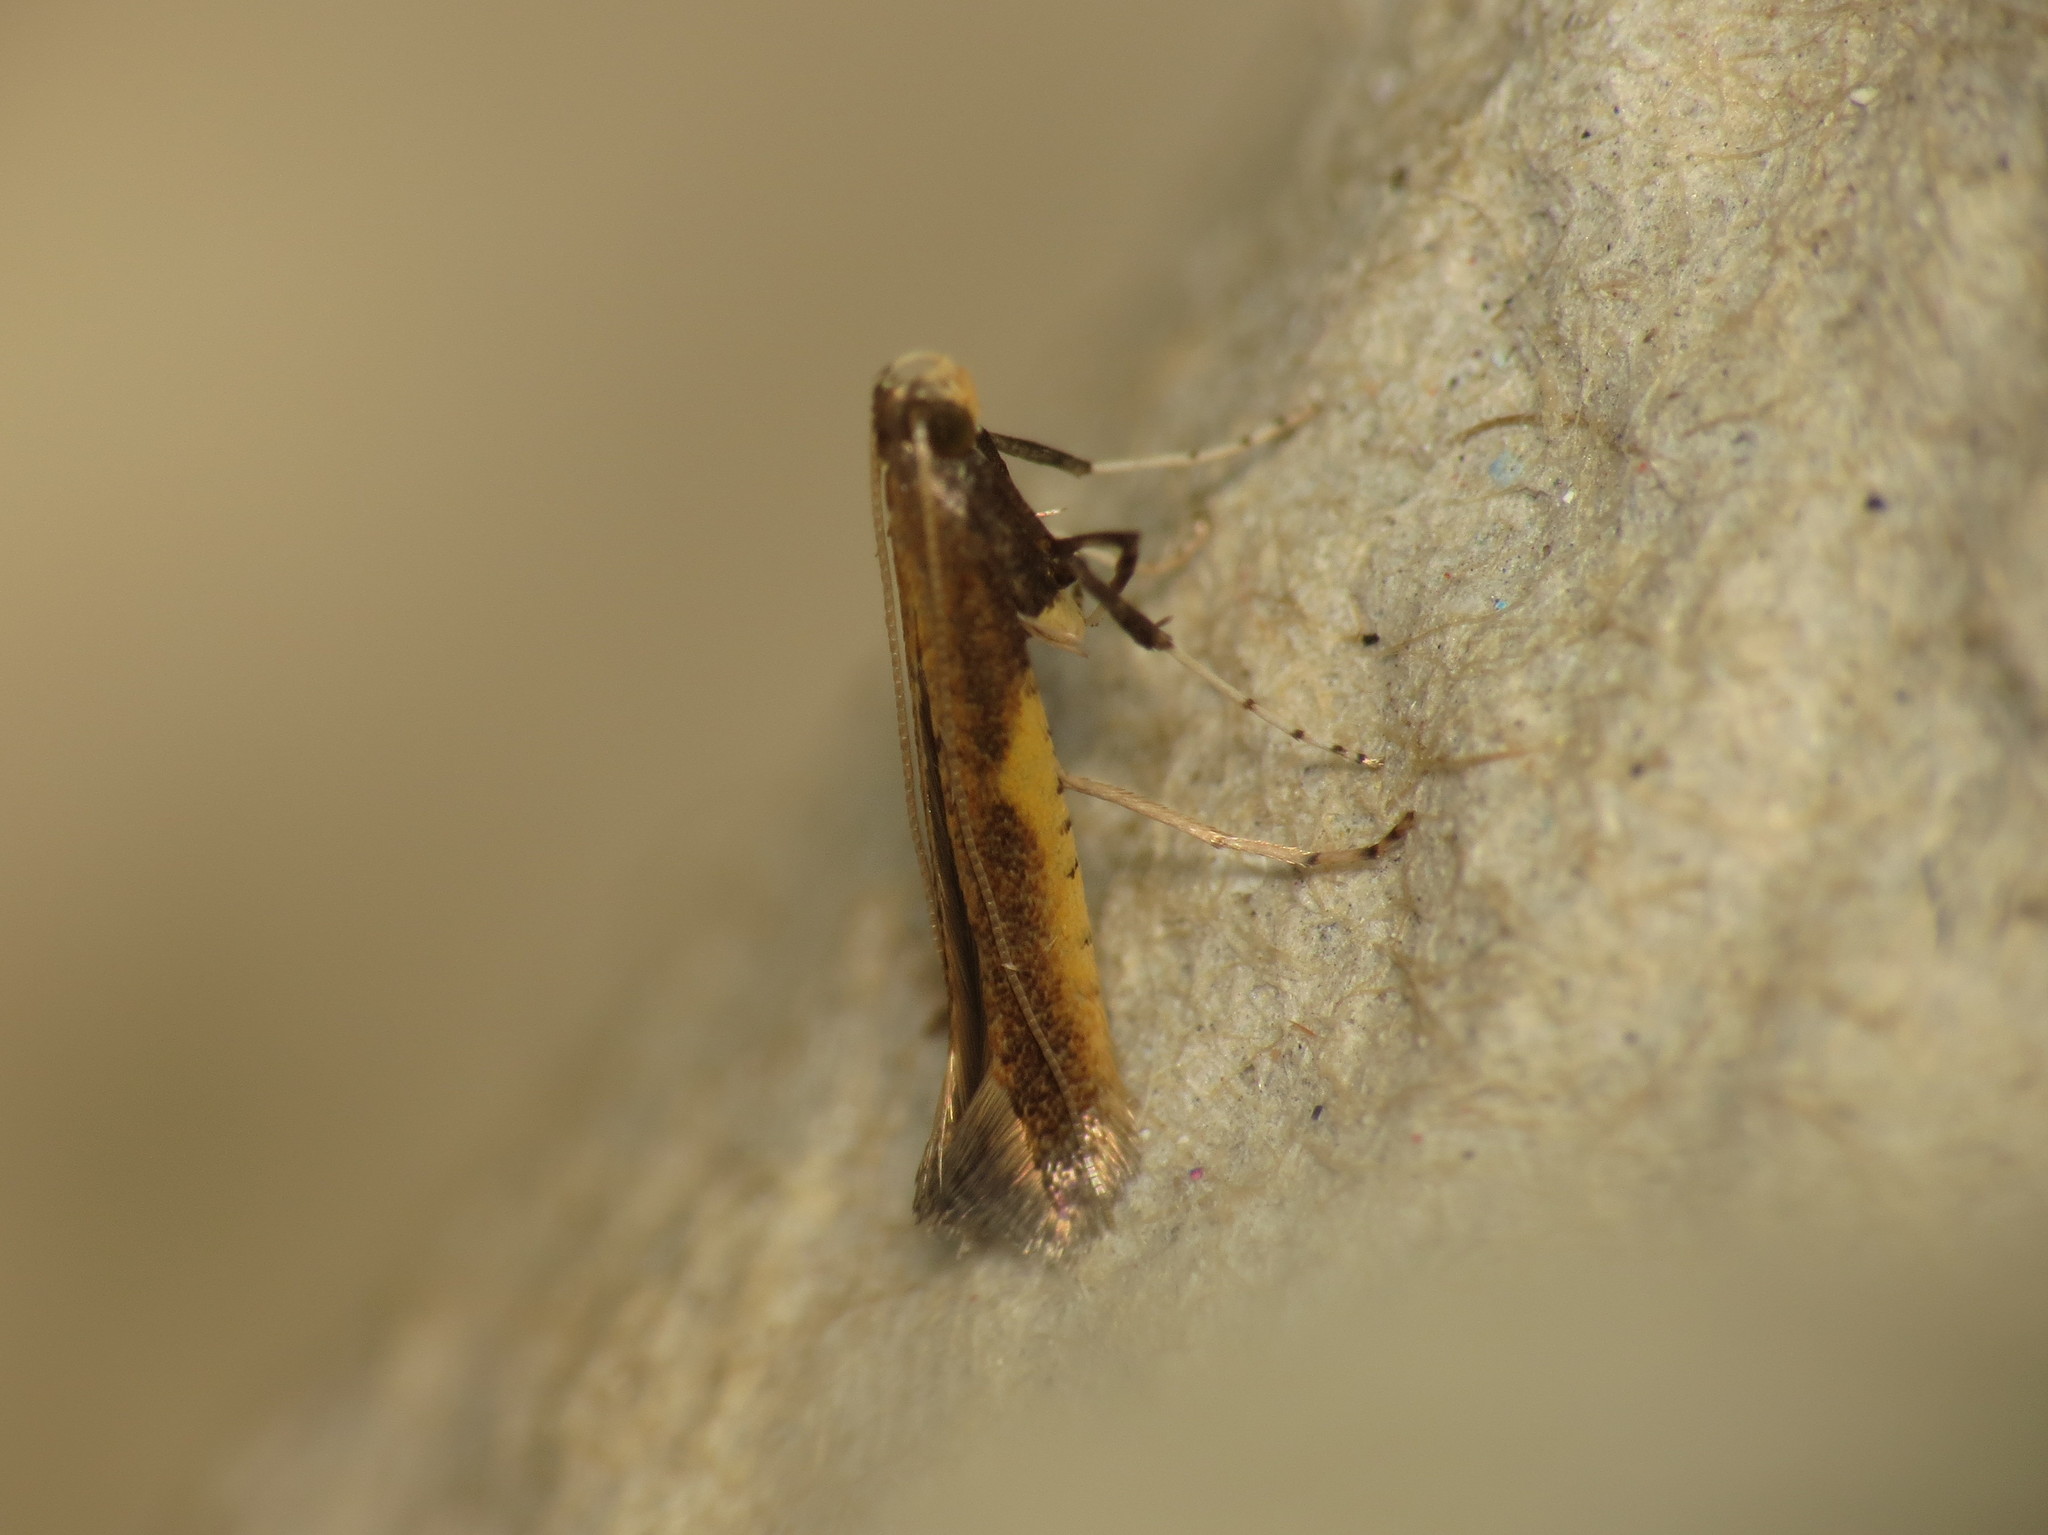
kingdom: Animalia
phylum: Arthropoda
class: Insecta
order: Lepidoptera
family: Gracillariidae
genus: Caloptilia
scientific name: Caloptilia azaleella
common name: Azalea leafminer
